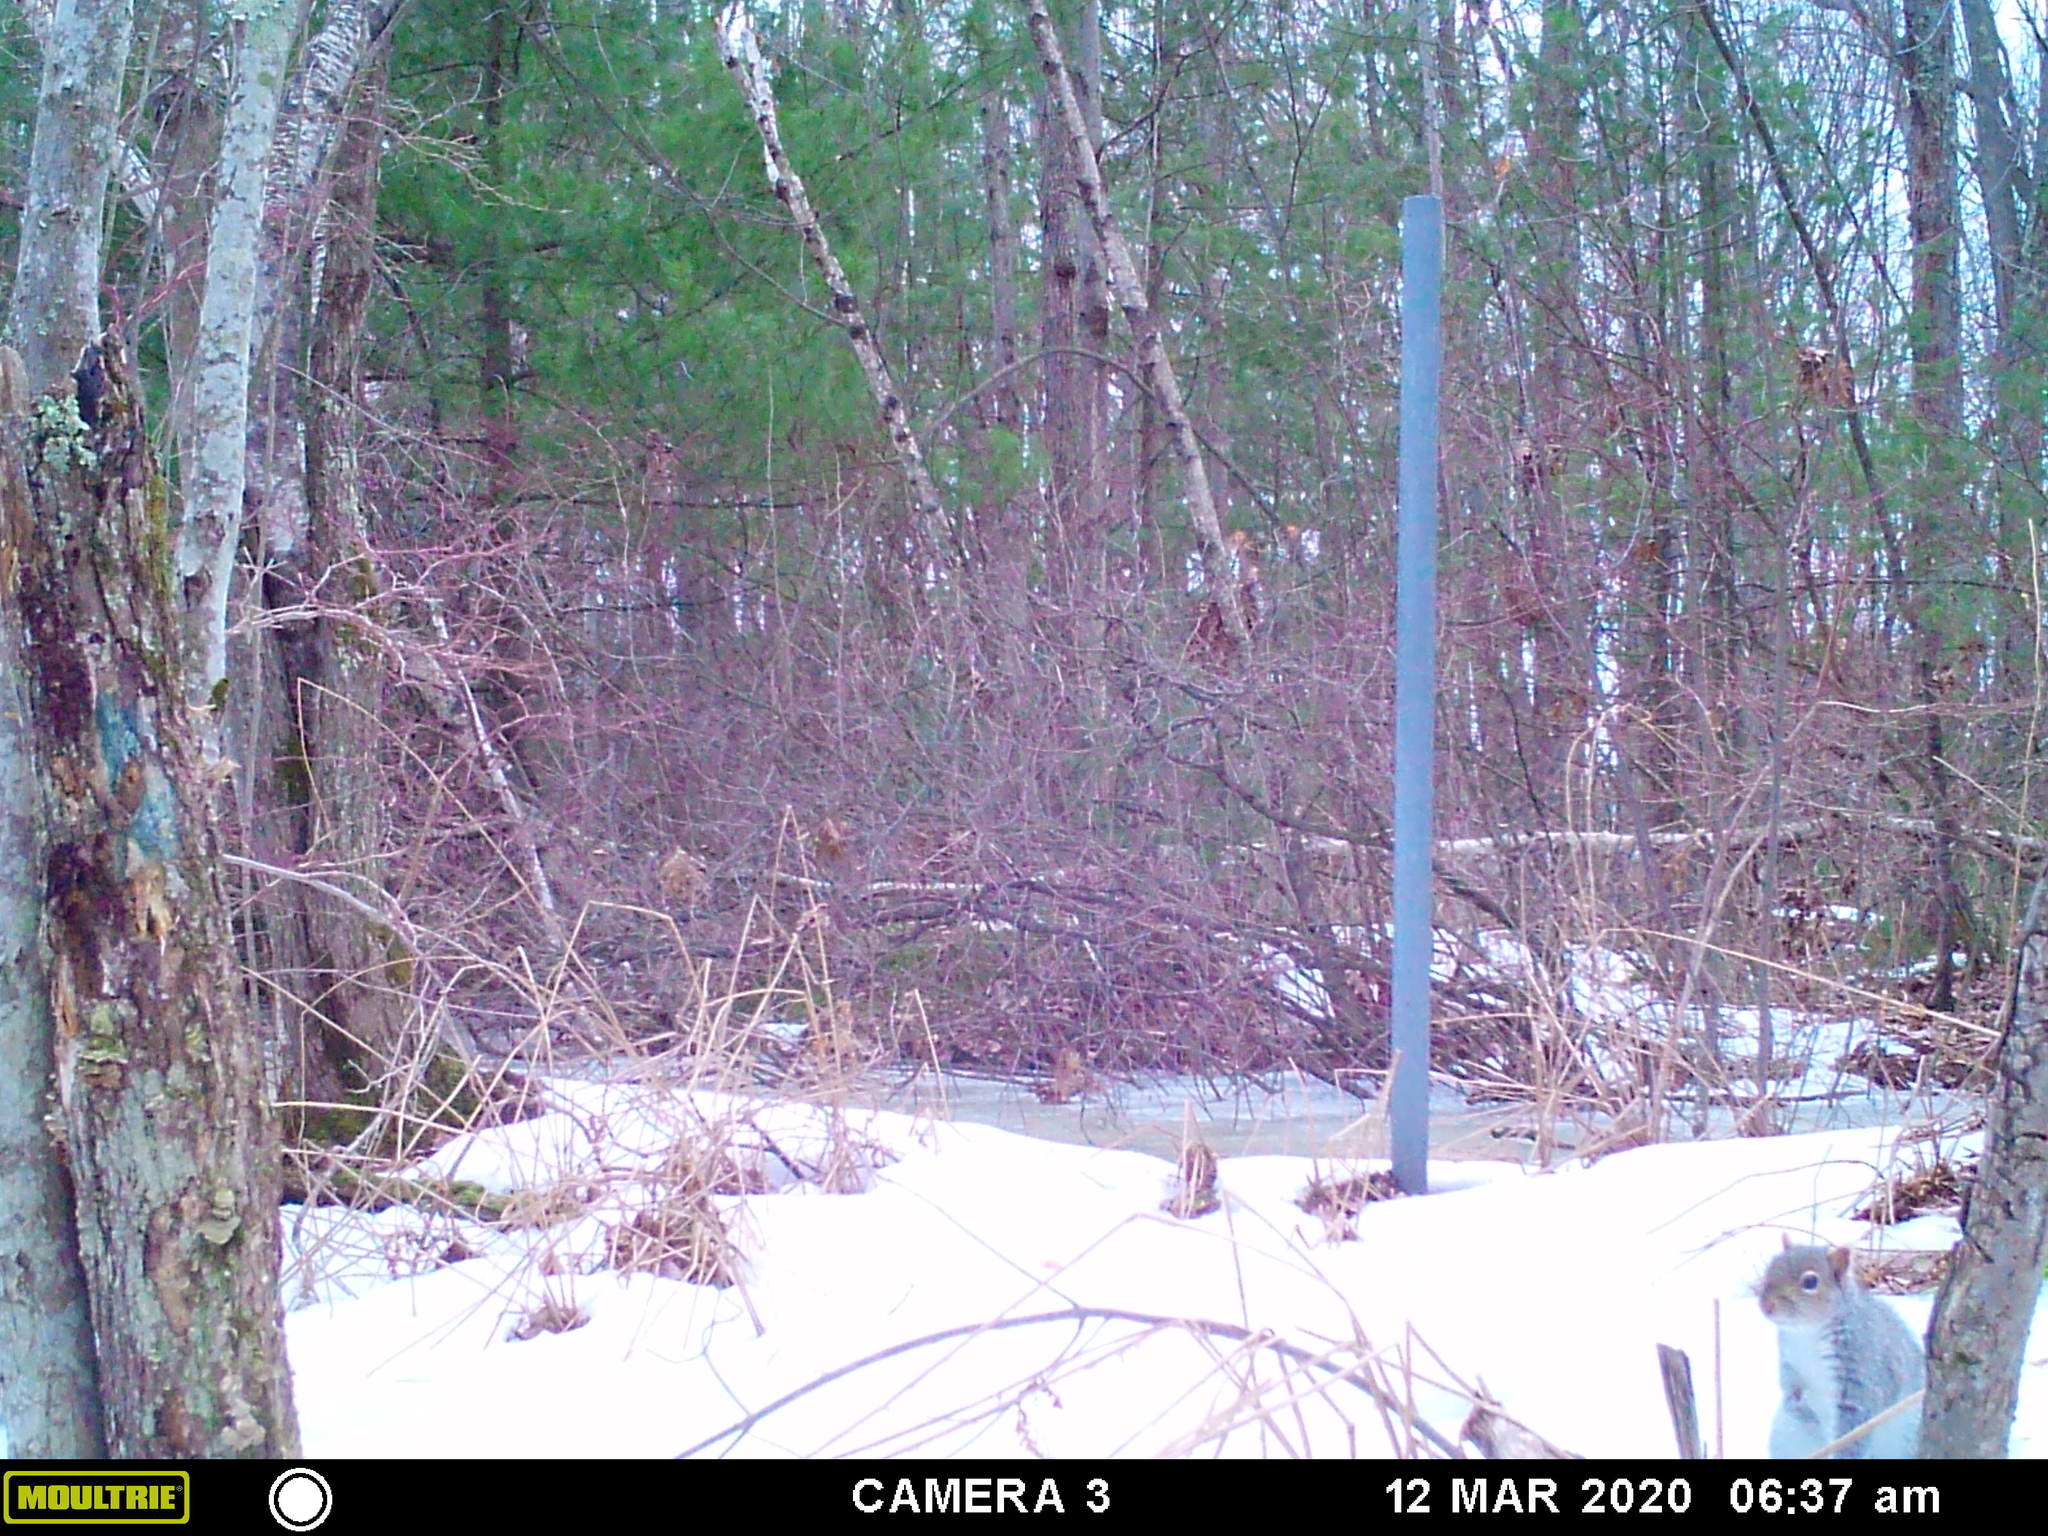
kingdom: Animalia
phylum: Chordata
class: Mammalia
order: Rodentia
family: Sciuridae
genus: Sciurus
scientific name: Sciurus carolinensis
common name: Eastern gray squirrel
